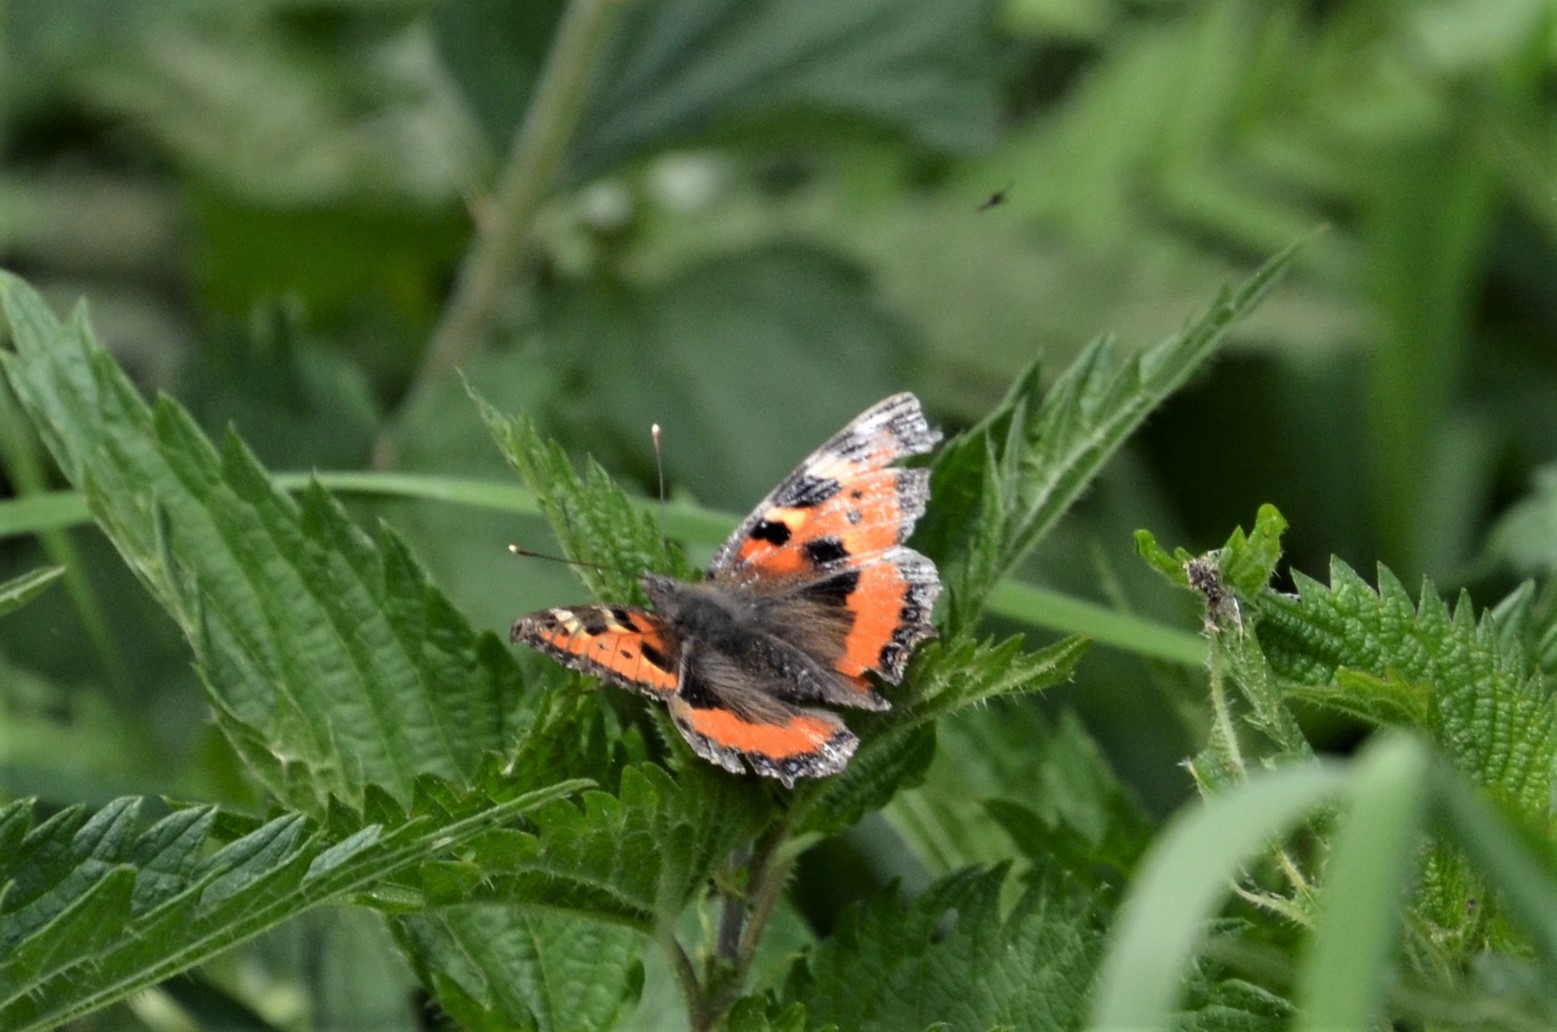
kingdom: Animalia
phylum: Arthropoda
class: Insecta
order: Lepidoptera
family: Nymphalidae
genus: Aglais
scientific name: Aglais urticae
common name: Small tortoiseshell
